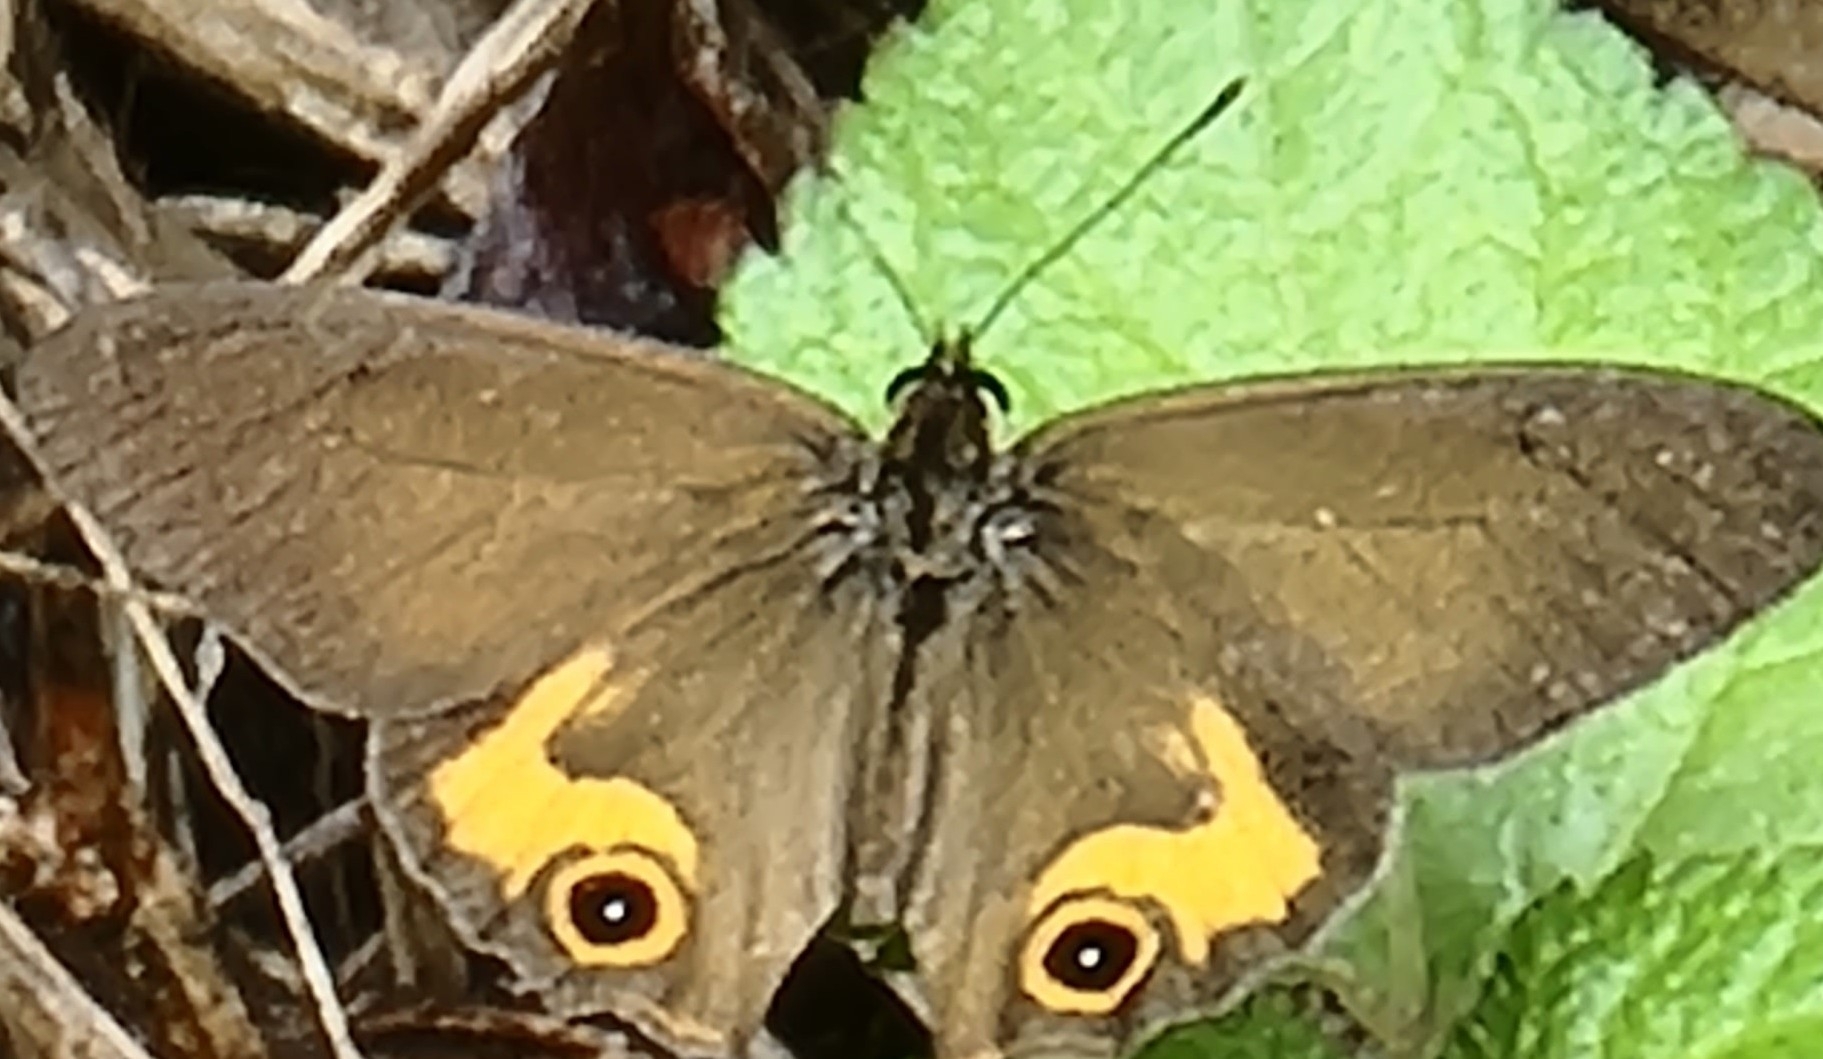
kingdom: Animalia
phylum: Arthropoda
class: Insecta
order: Lepidoptera
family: Nymphalidae
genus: Hypocysta
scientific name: Hypocysta metirius
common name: Brown ringlet
